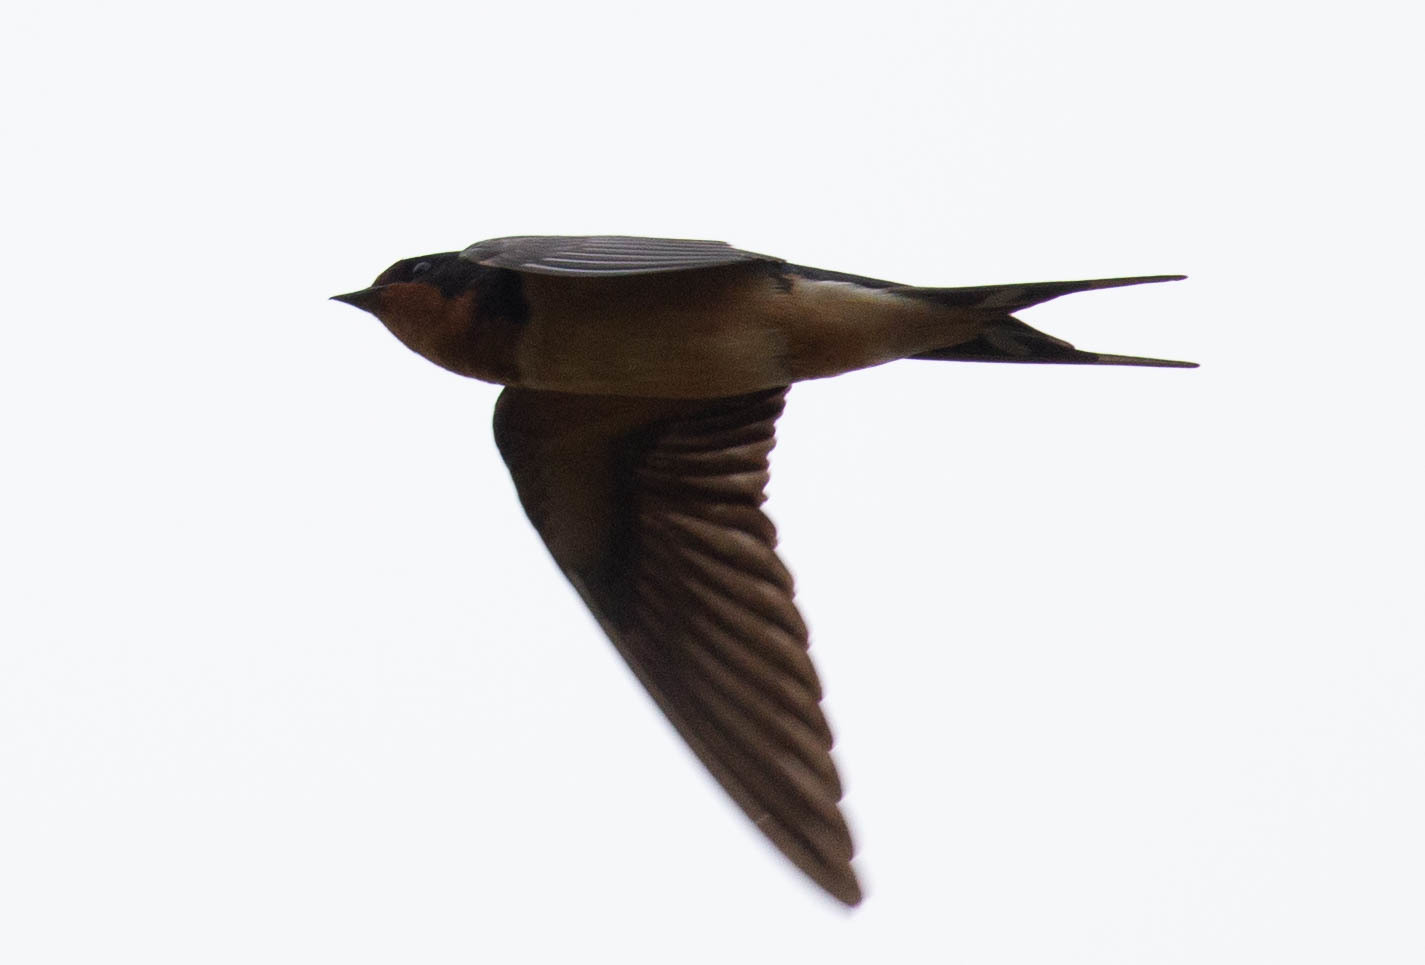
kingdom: Animalia
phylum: Chordata
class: Aves
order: Passeriformes
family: Hirundinidae
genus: Hirundo
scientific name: Hirundo rustica
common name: Barn swallow
